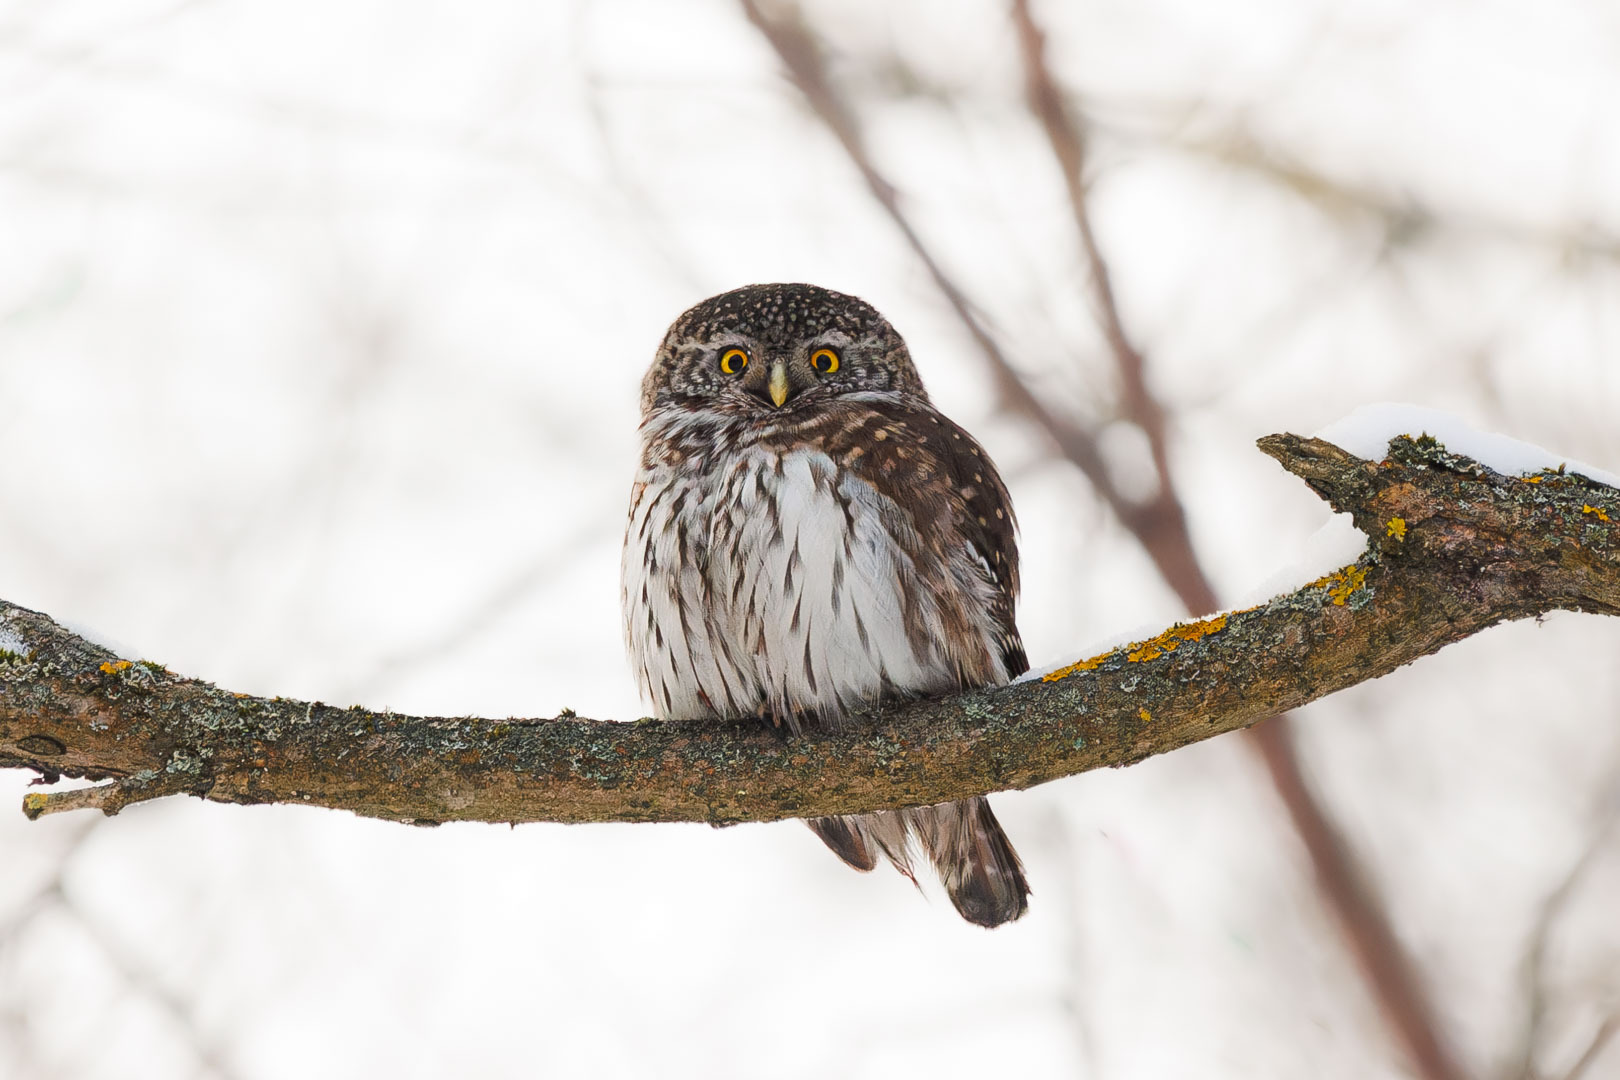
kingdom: Animalia
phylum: Chordata
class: Aves
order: Strigiformes
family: Strigidae
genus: Glaucidium
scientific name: Glaucidium passerinum
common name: Eurasian pygmy owl
